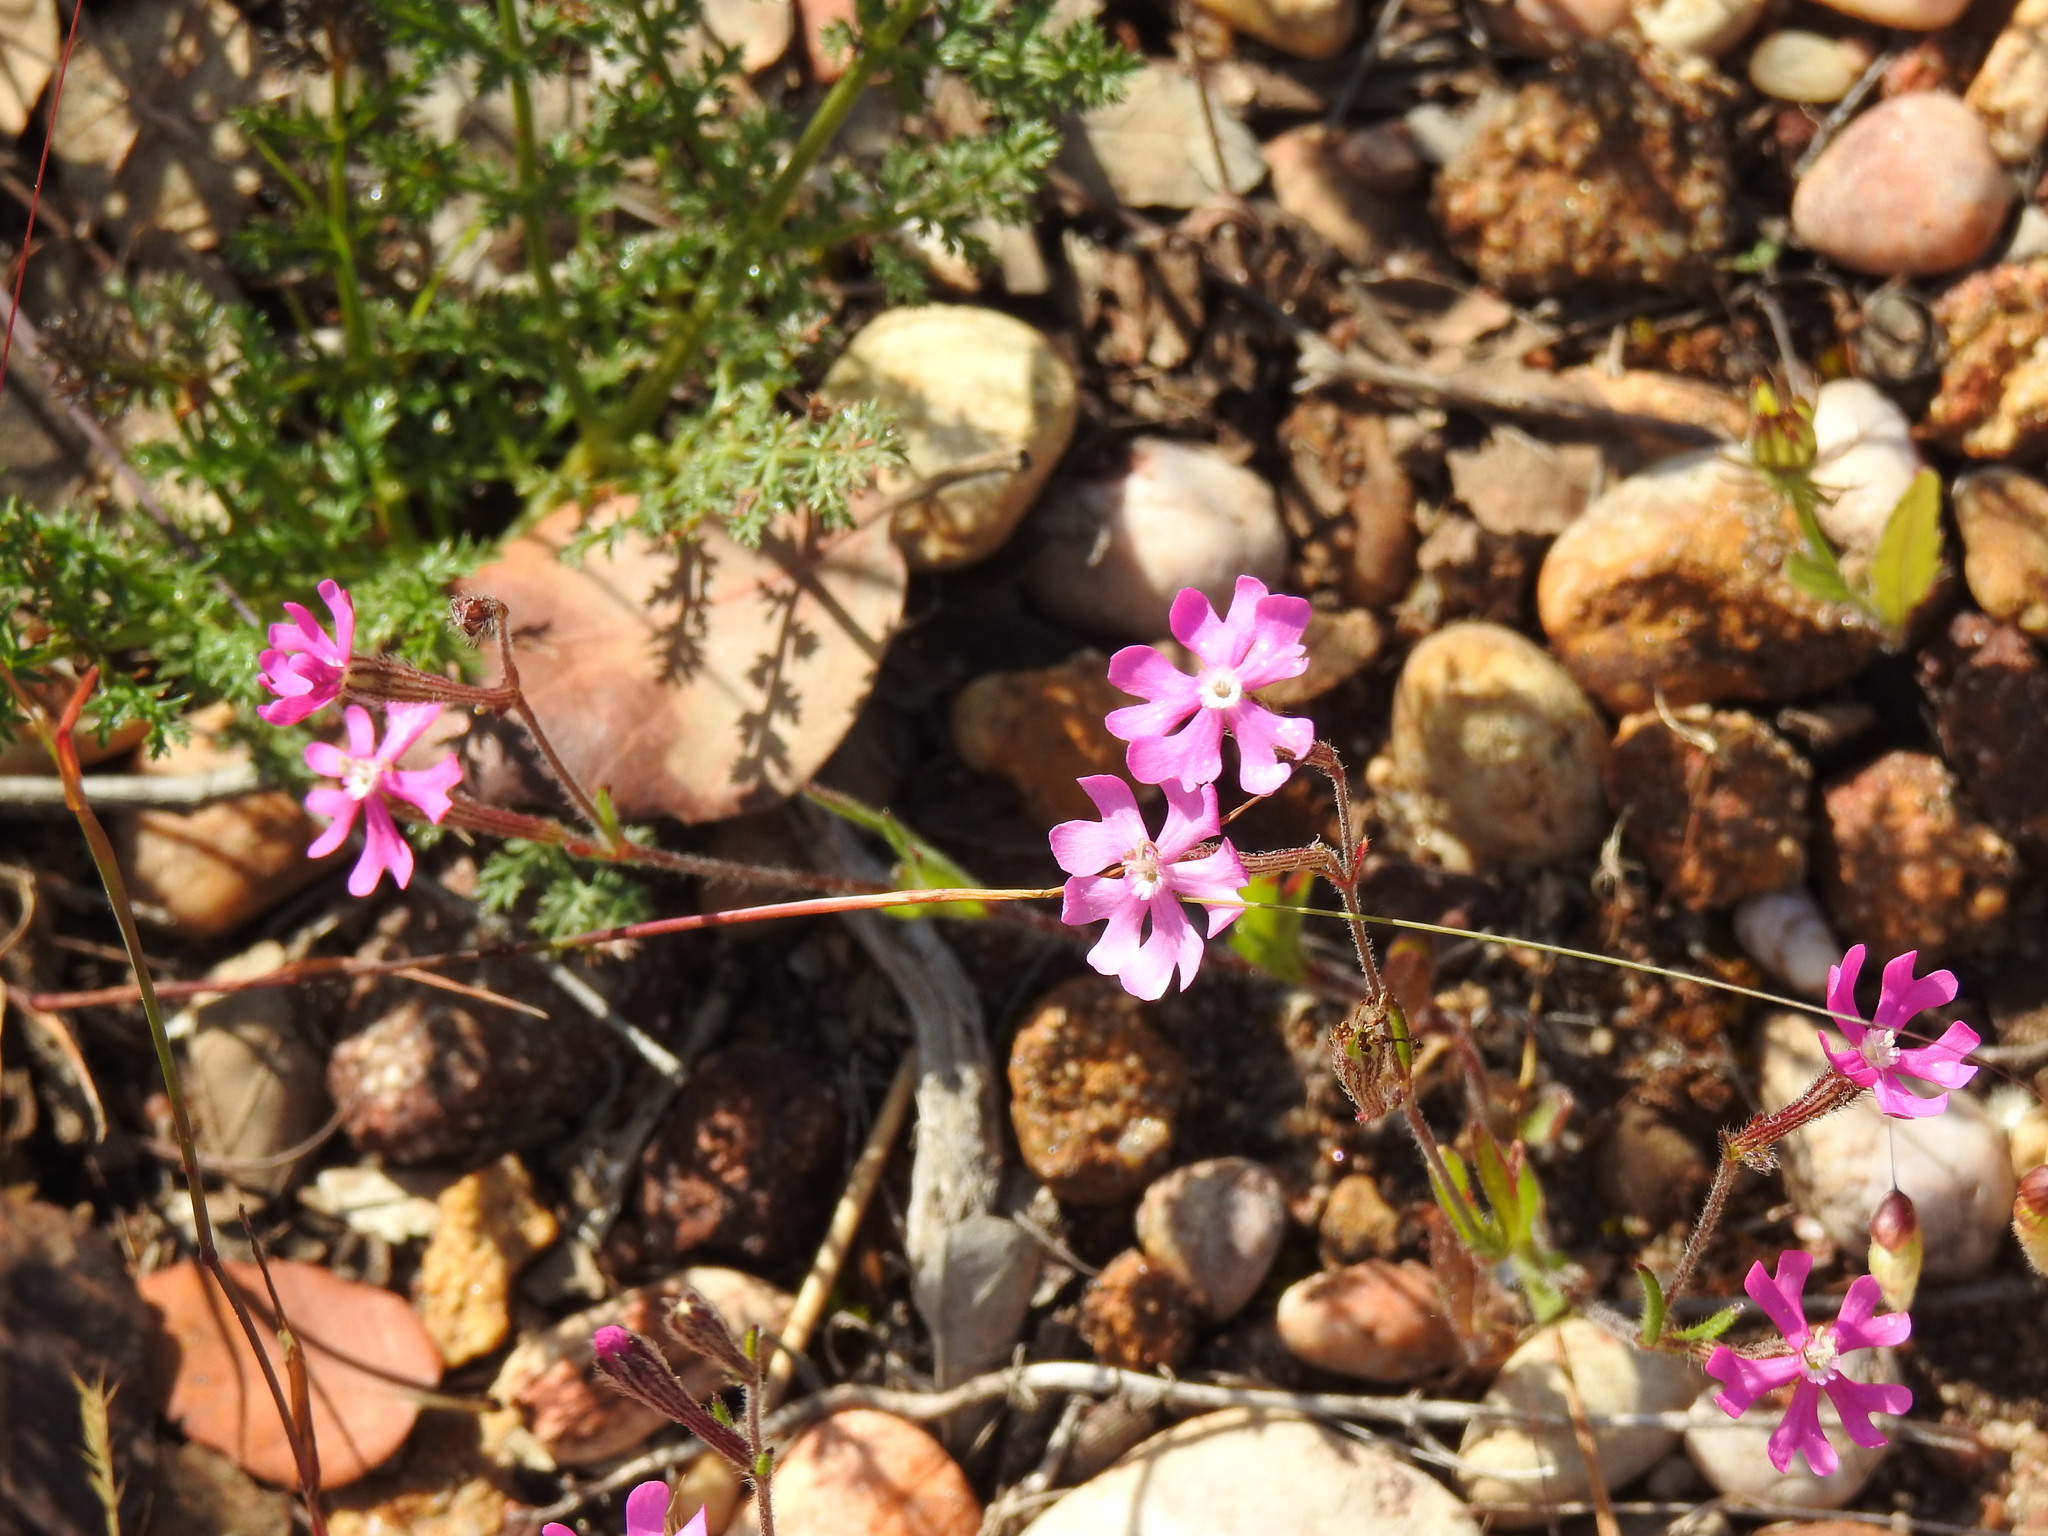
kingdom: Plantae
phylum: Tracheophyta
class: Magnoliopsida
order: Caryophyllales
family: Caryophyllaceae
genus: Silene
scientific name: Silene scabriflora
